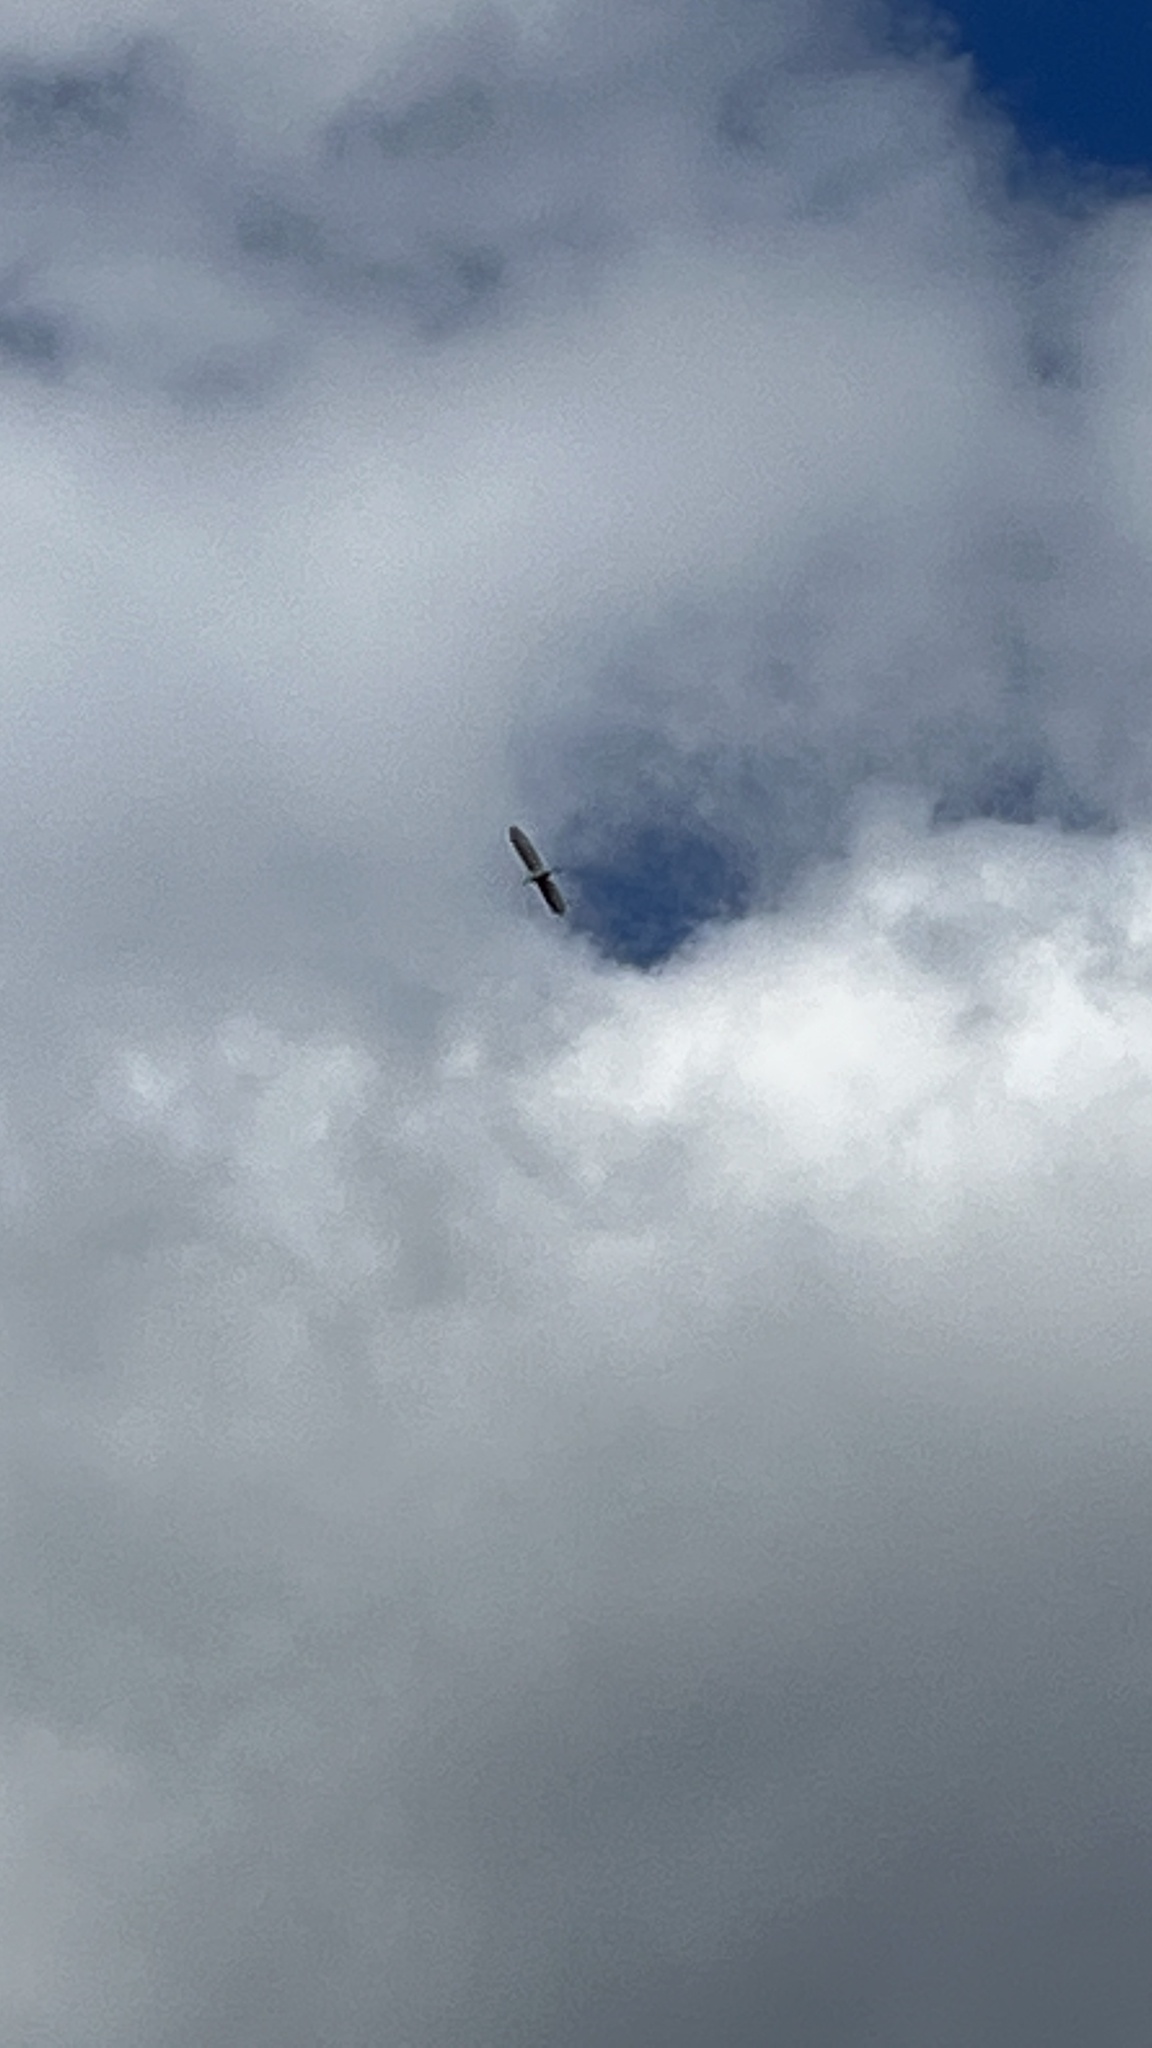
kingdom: Animalia
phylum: Chordata
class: Aves
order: Pelecaniformes
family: Ardeidae
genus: Ardea
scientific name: Ardea alba
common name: Great egret
